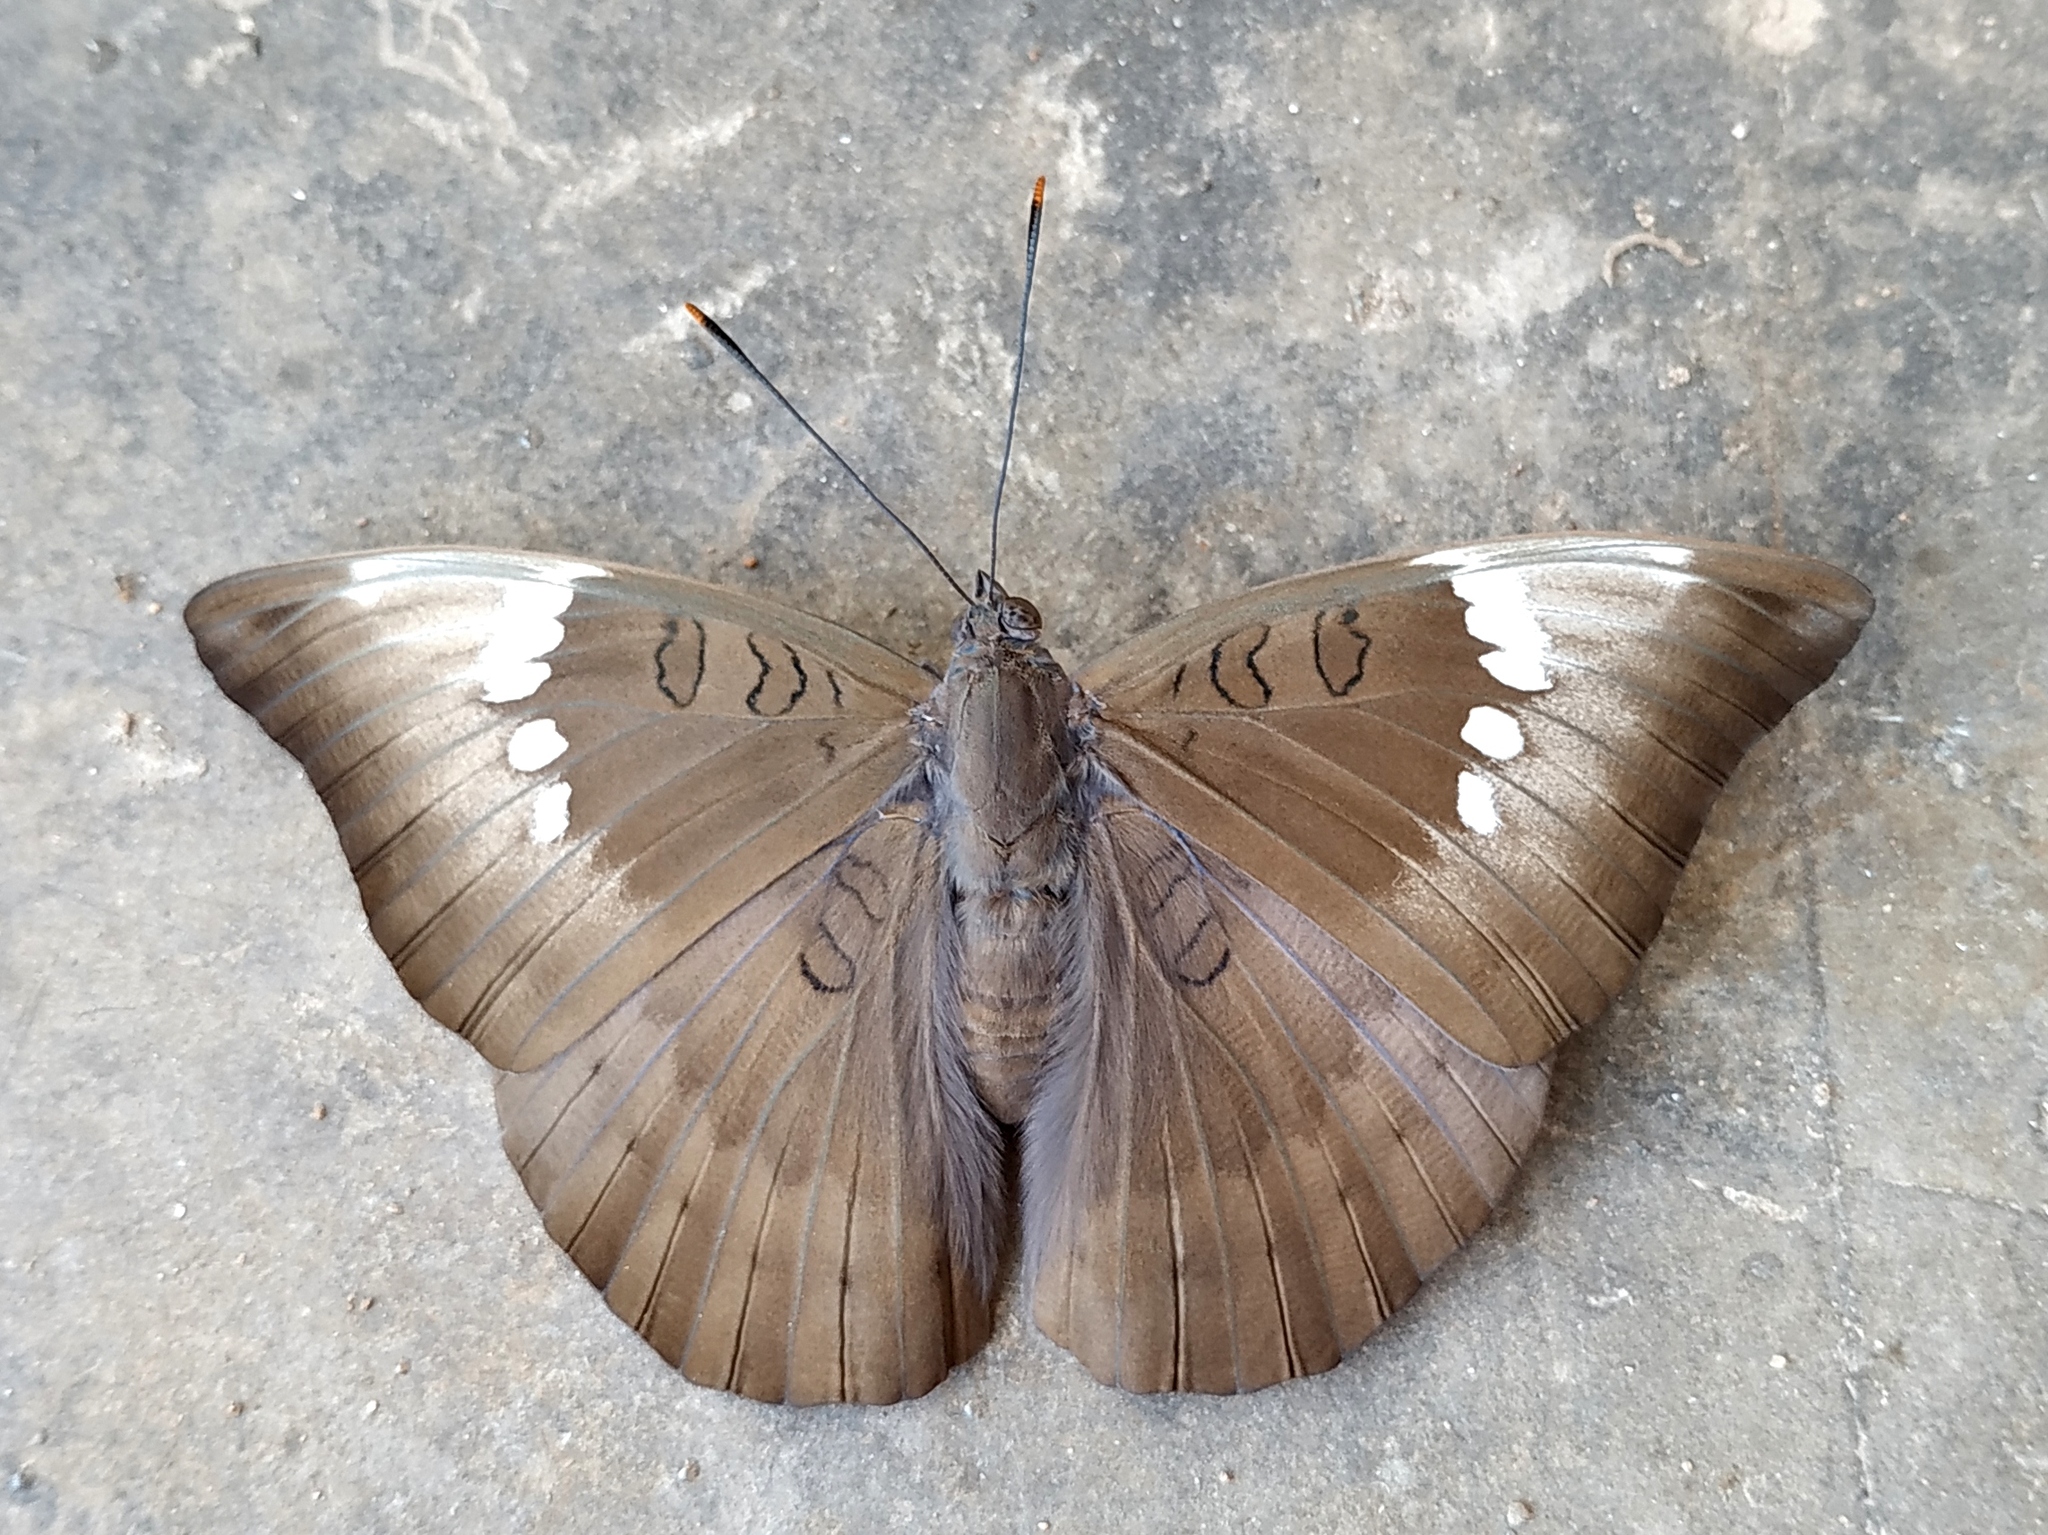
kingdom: Animalia
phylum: Arthropoda
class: Insecta
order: Lepidoptera
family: Nymphalidae
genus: Euthalia
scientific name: Euthalia aconthea
